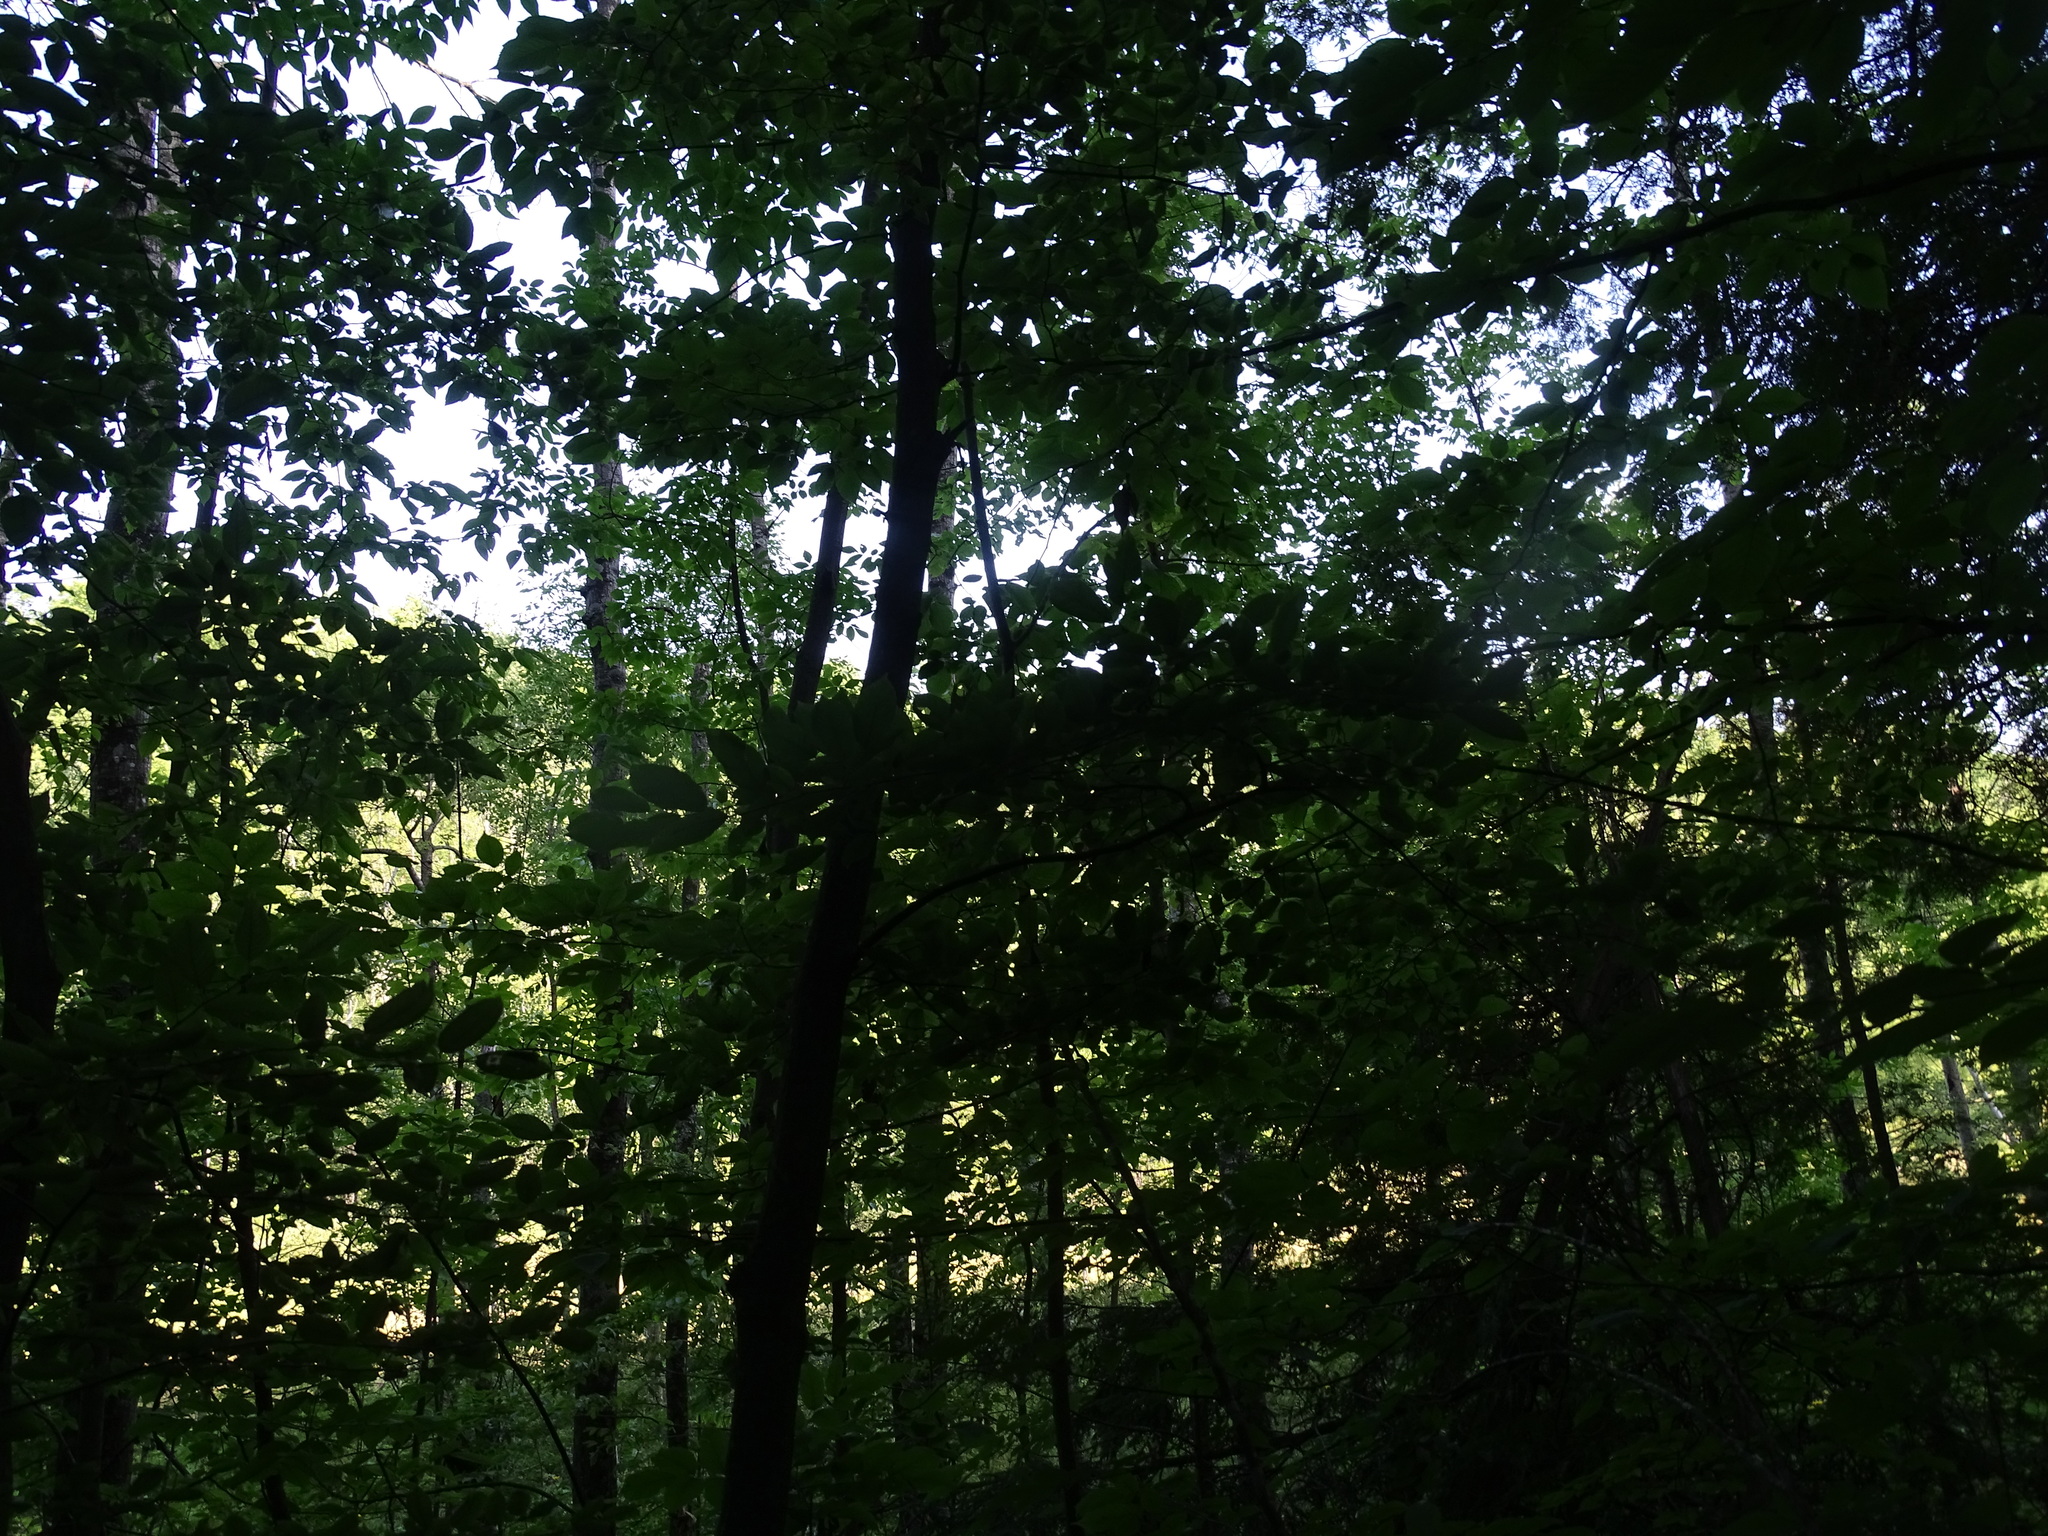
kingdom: Plantae
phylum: Tracheophyta
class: Magnoliopsida
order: Fagales
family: Betulaceae
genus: Carpinus
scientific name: Carpinus caroliniana
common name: American hornbeam
